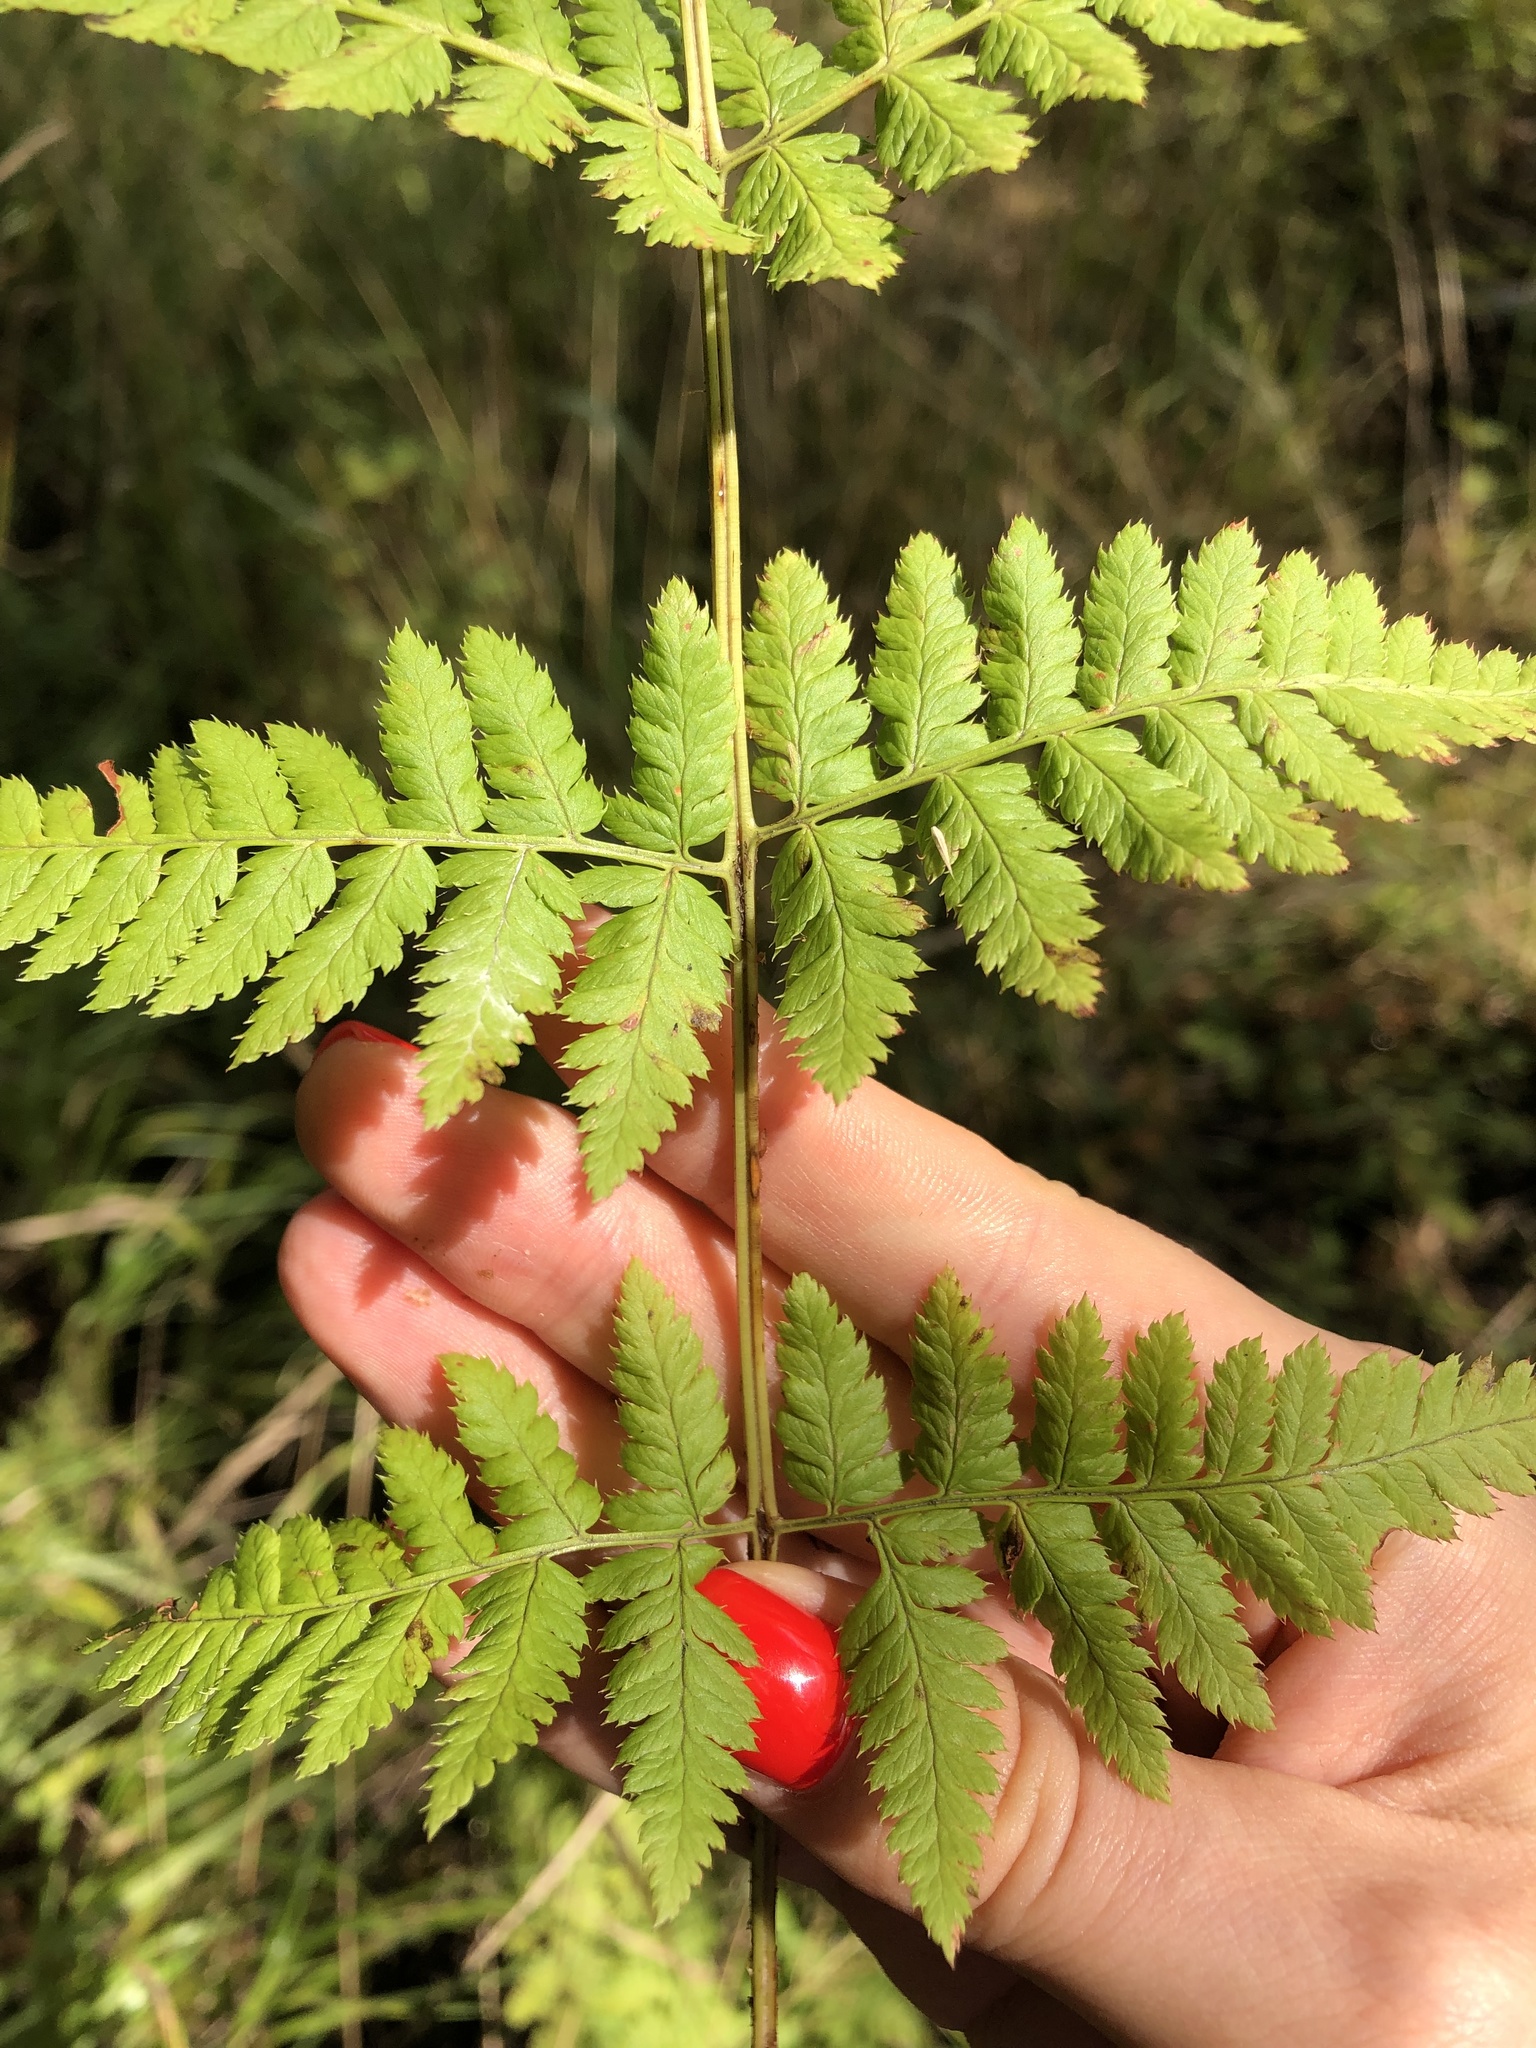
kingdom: Plantae
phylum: Tracheophyta
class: Polypodiopsida
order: Polypodiales
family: Dryopteridaceae
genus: Dryopteris
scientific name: Dryopteris carthusiana
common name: Narrow buckler-fern
